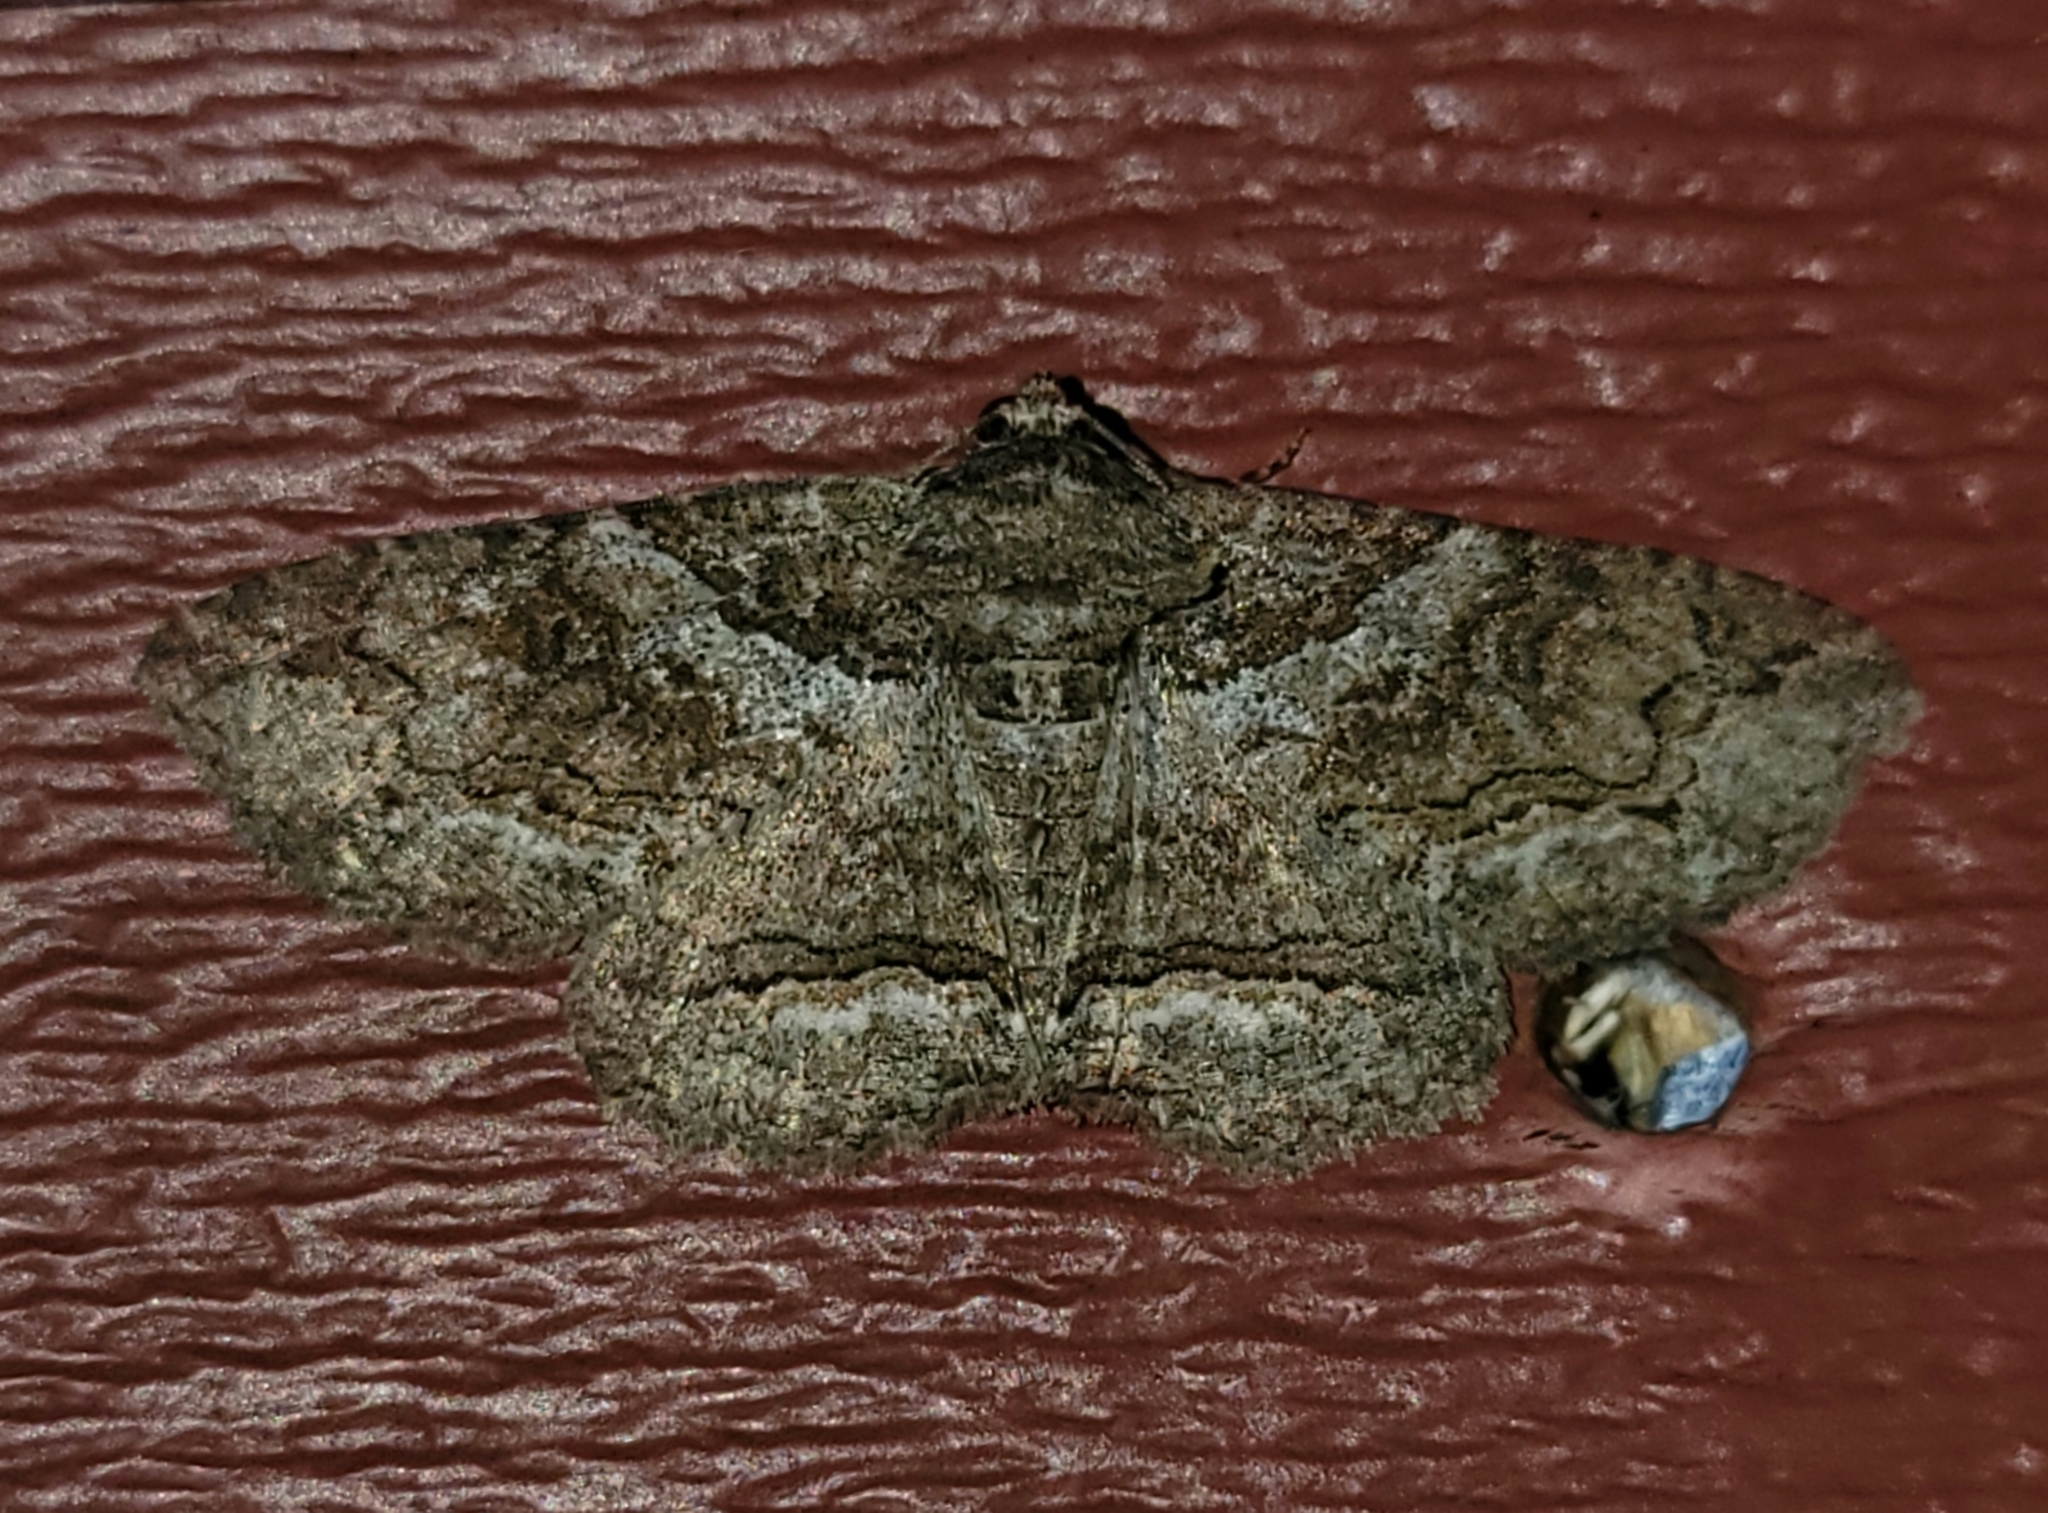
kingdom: Animalia
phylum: Arthropoda
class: Insecta
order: Lepidoptera
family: Erebidae
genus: Zale
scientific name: Zale galbanata
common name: Maple zale
